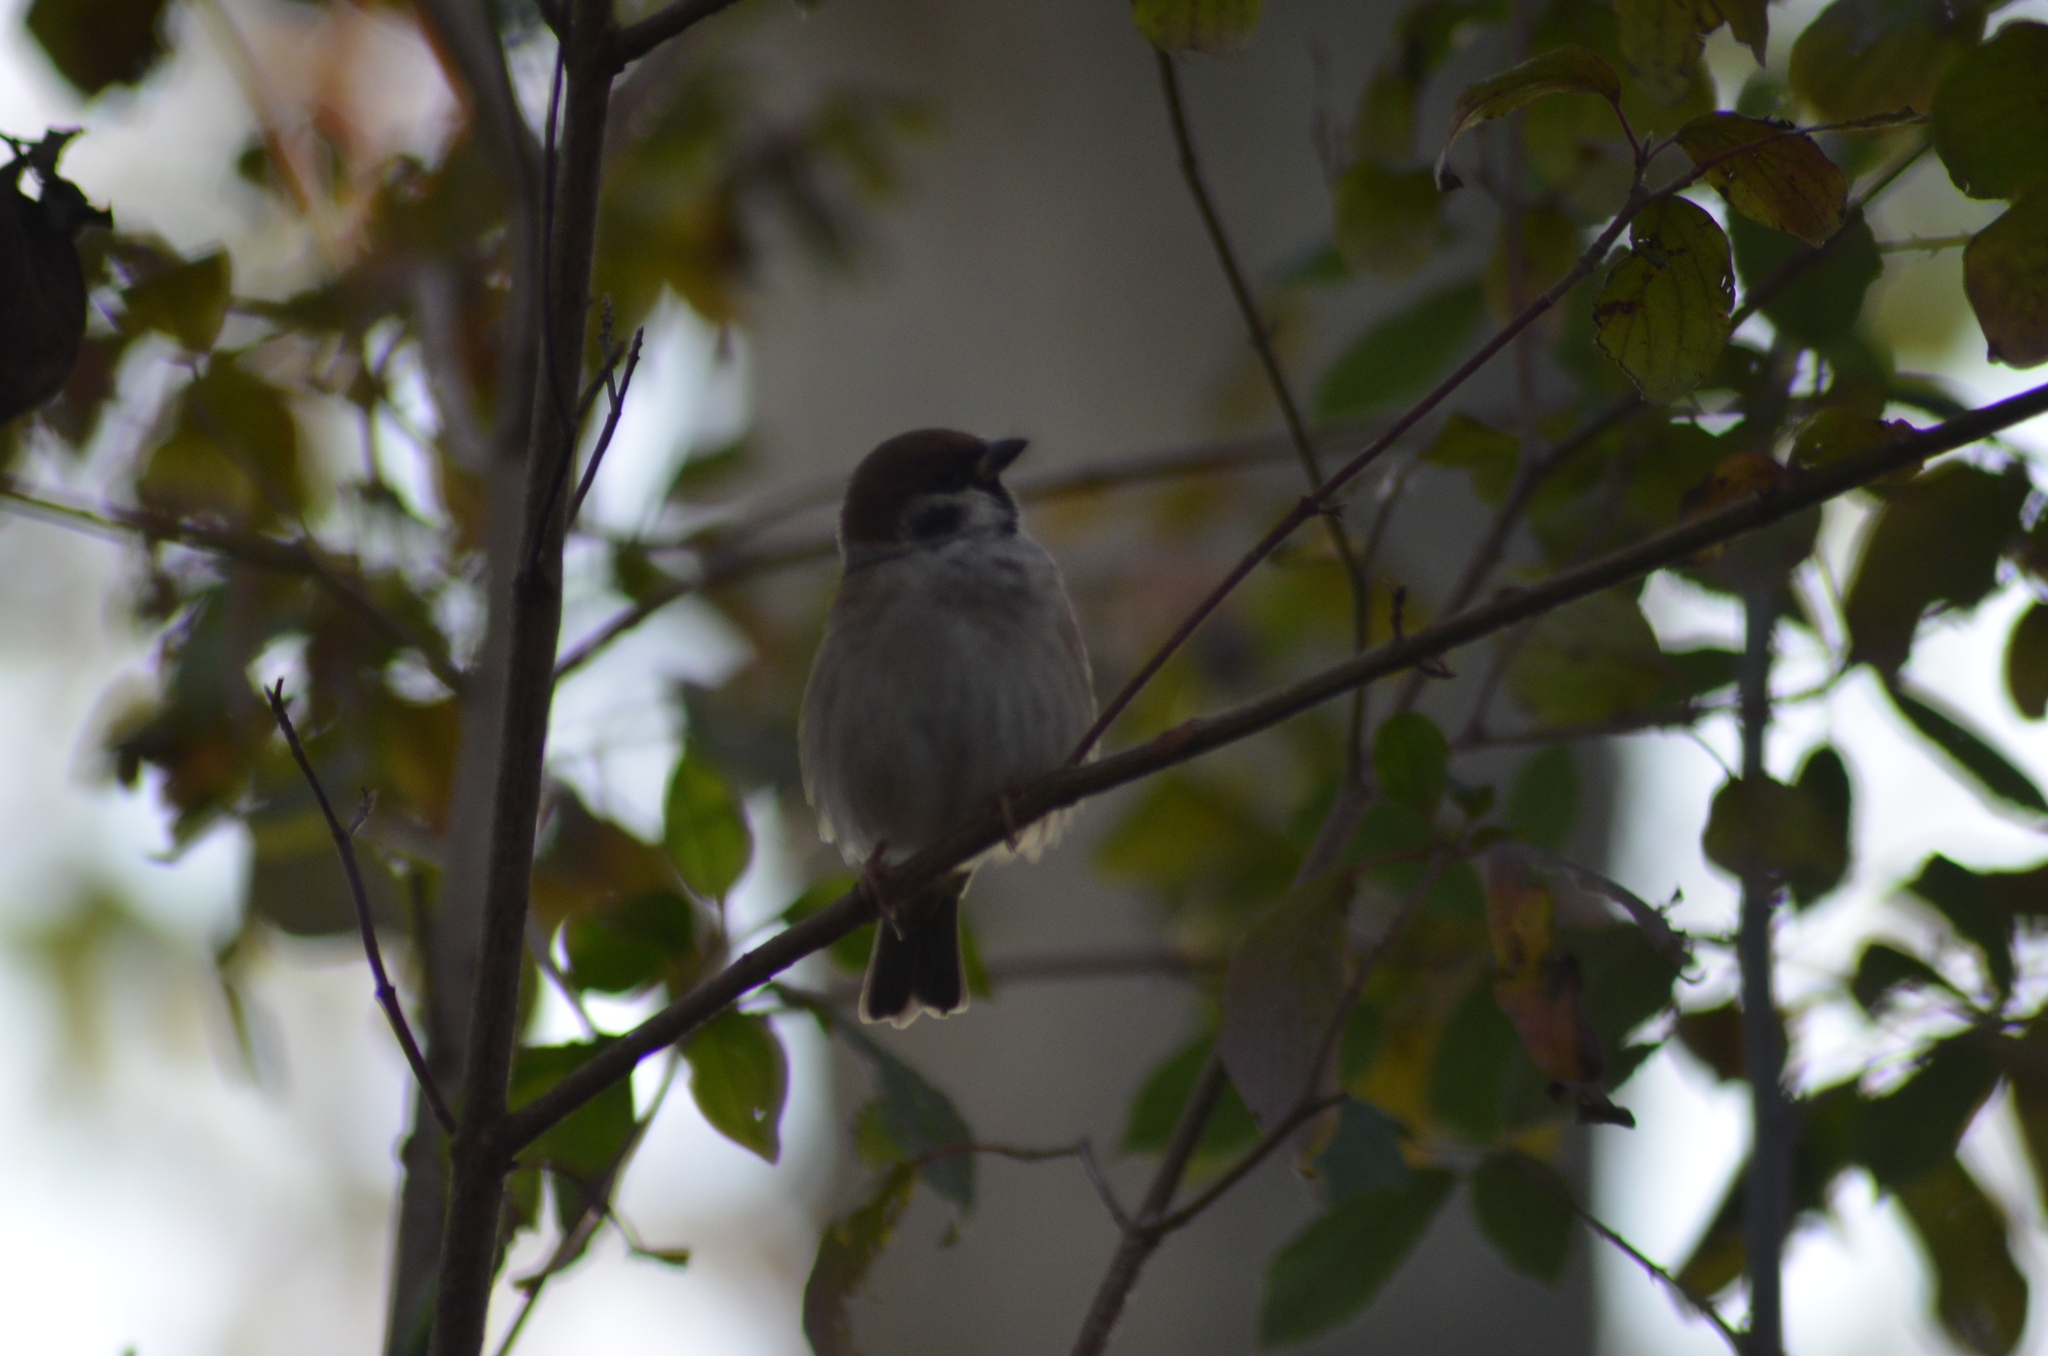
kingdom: Animalia
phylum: Chordata
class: Aves
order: Passeriformes
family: Passeridae
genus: Passer
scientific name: Passer montanus
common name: Eurasian tree sparrow
